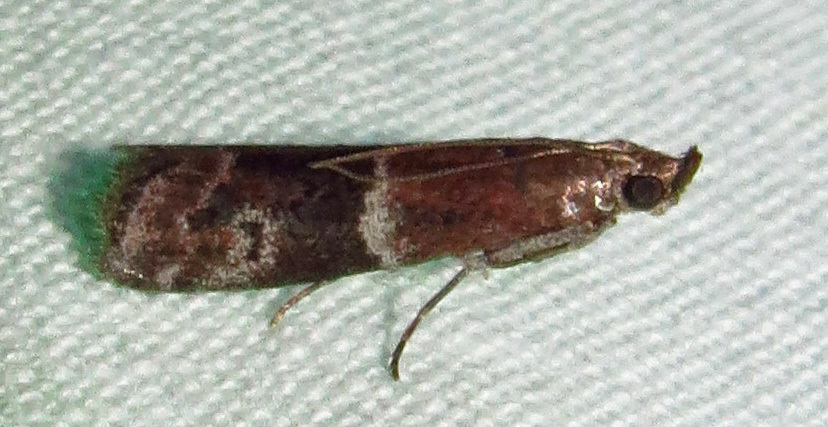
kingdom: Animalia
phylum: Arthropoda
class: Insecta
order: Lepidoptera
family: Pyralidae
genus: Moodna
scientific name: Moodna ostrinella
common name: Darker moodna moth
